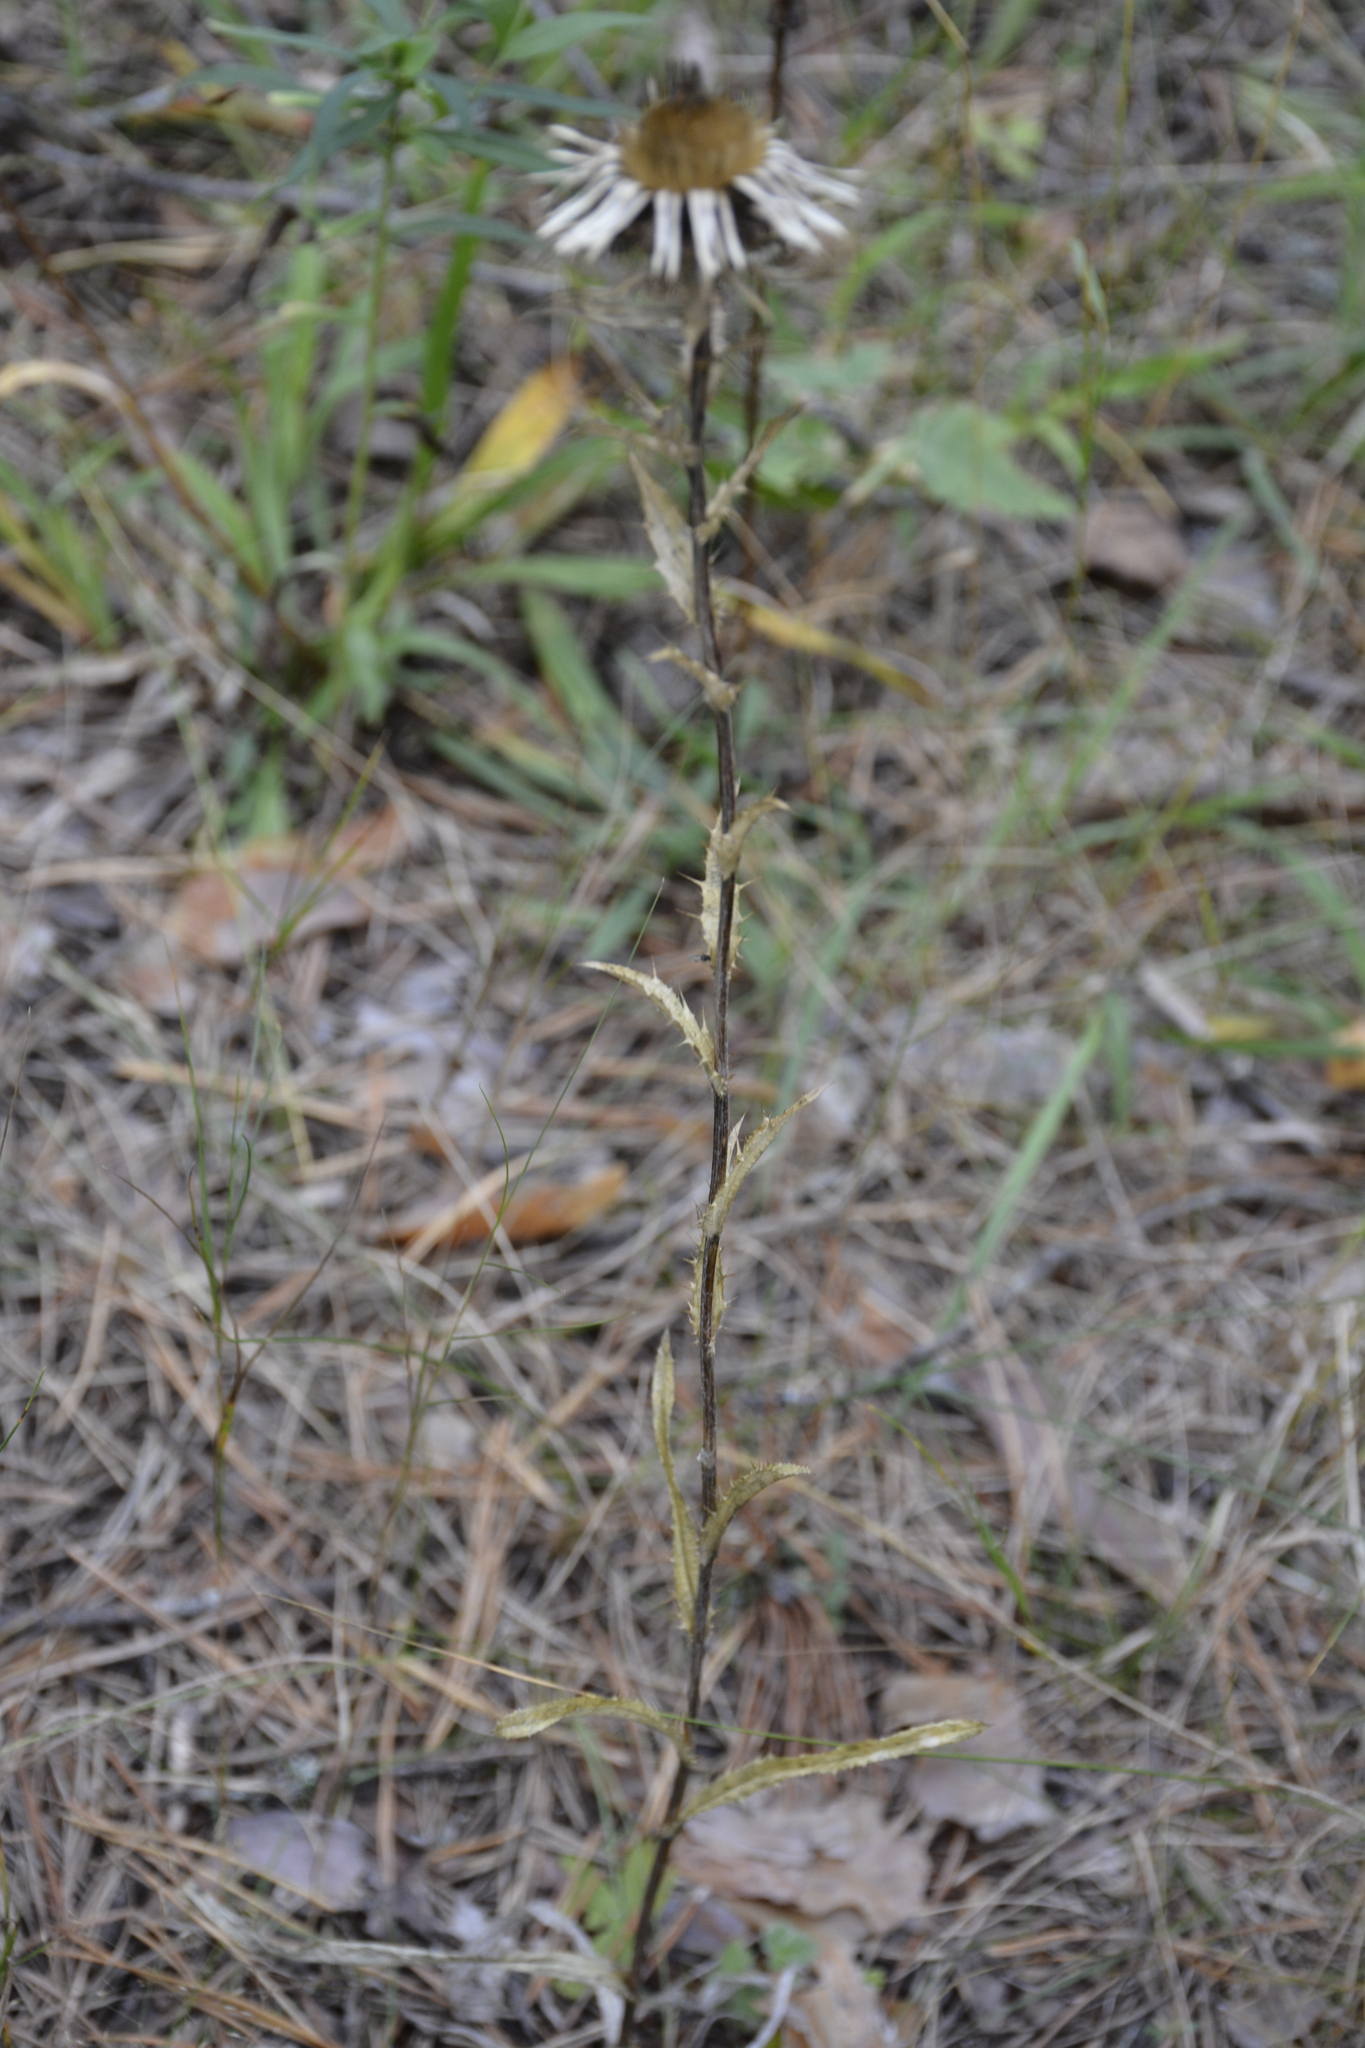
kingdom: Plantae
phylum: Tracheophyta
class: Magnoliopsida
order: Asterales
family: Asteraceae
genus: Carlina
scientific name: Carlina biebersteinii
